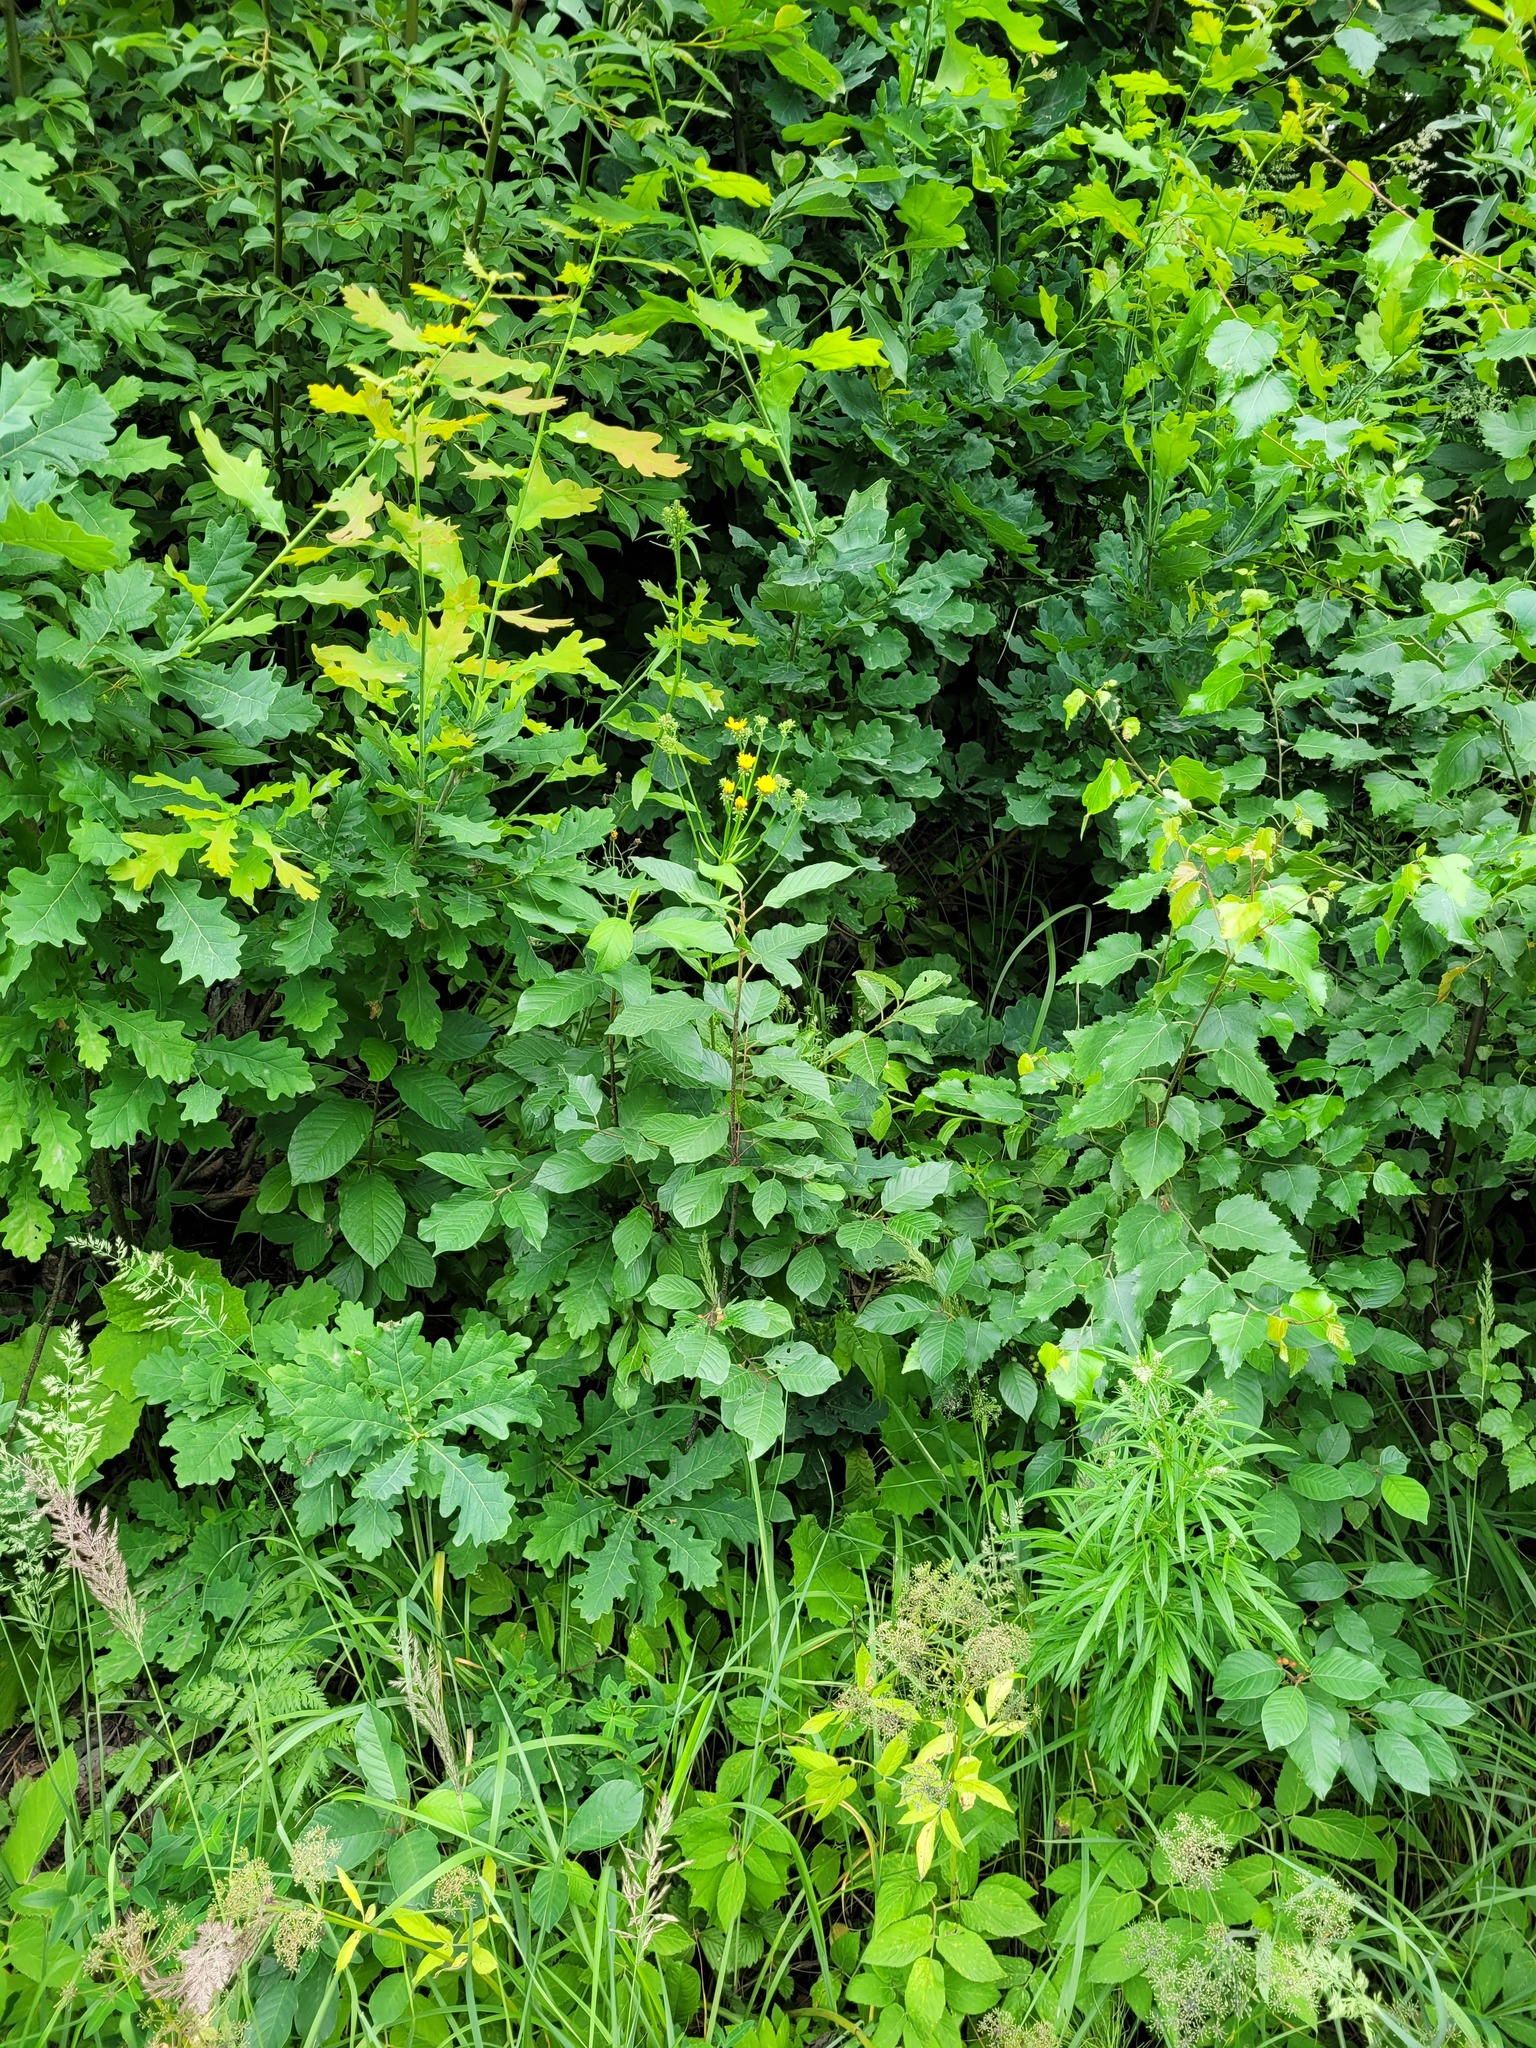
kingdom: Plantae
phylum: Tracheophyta
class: Magnoliopsida
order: Rosales
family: Rhamnaceae
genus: Frangula
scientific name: Frangula alnus
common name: Alder buckthorn
